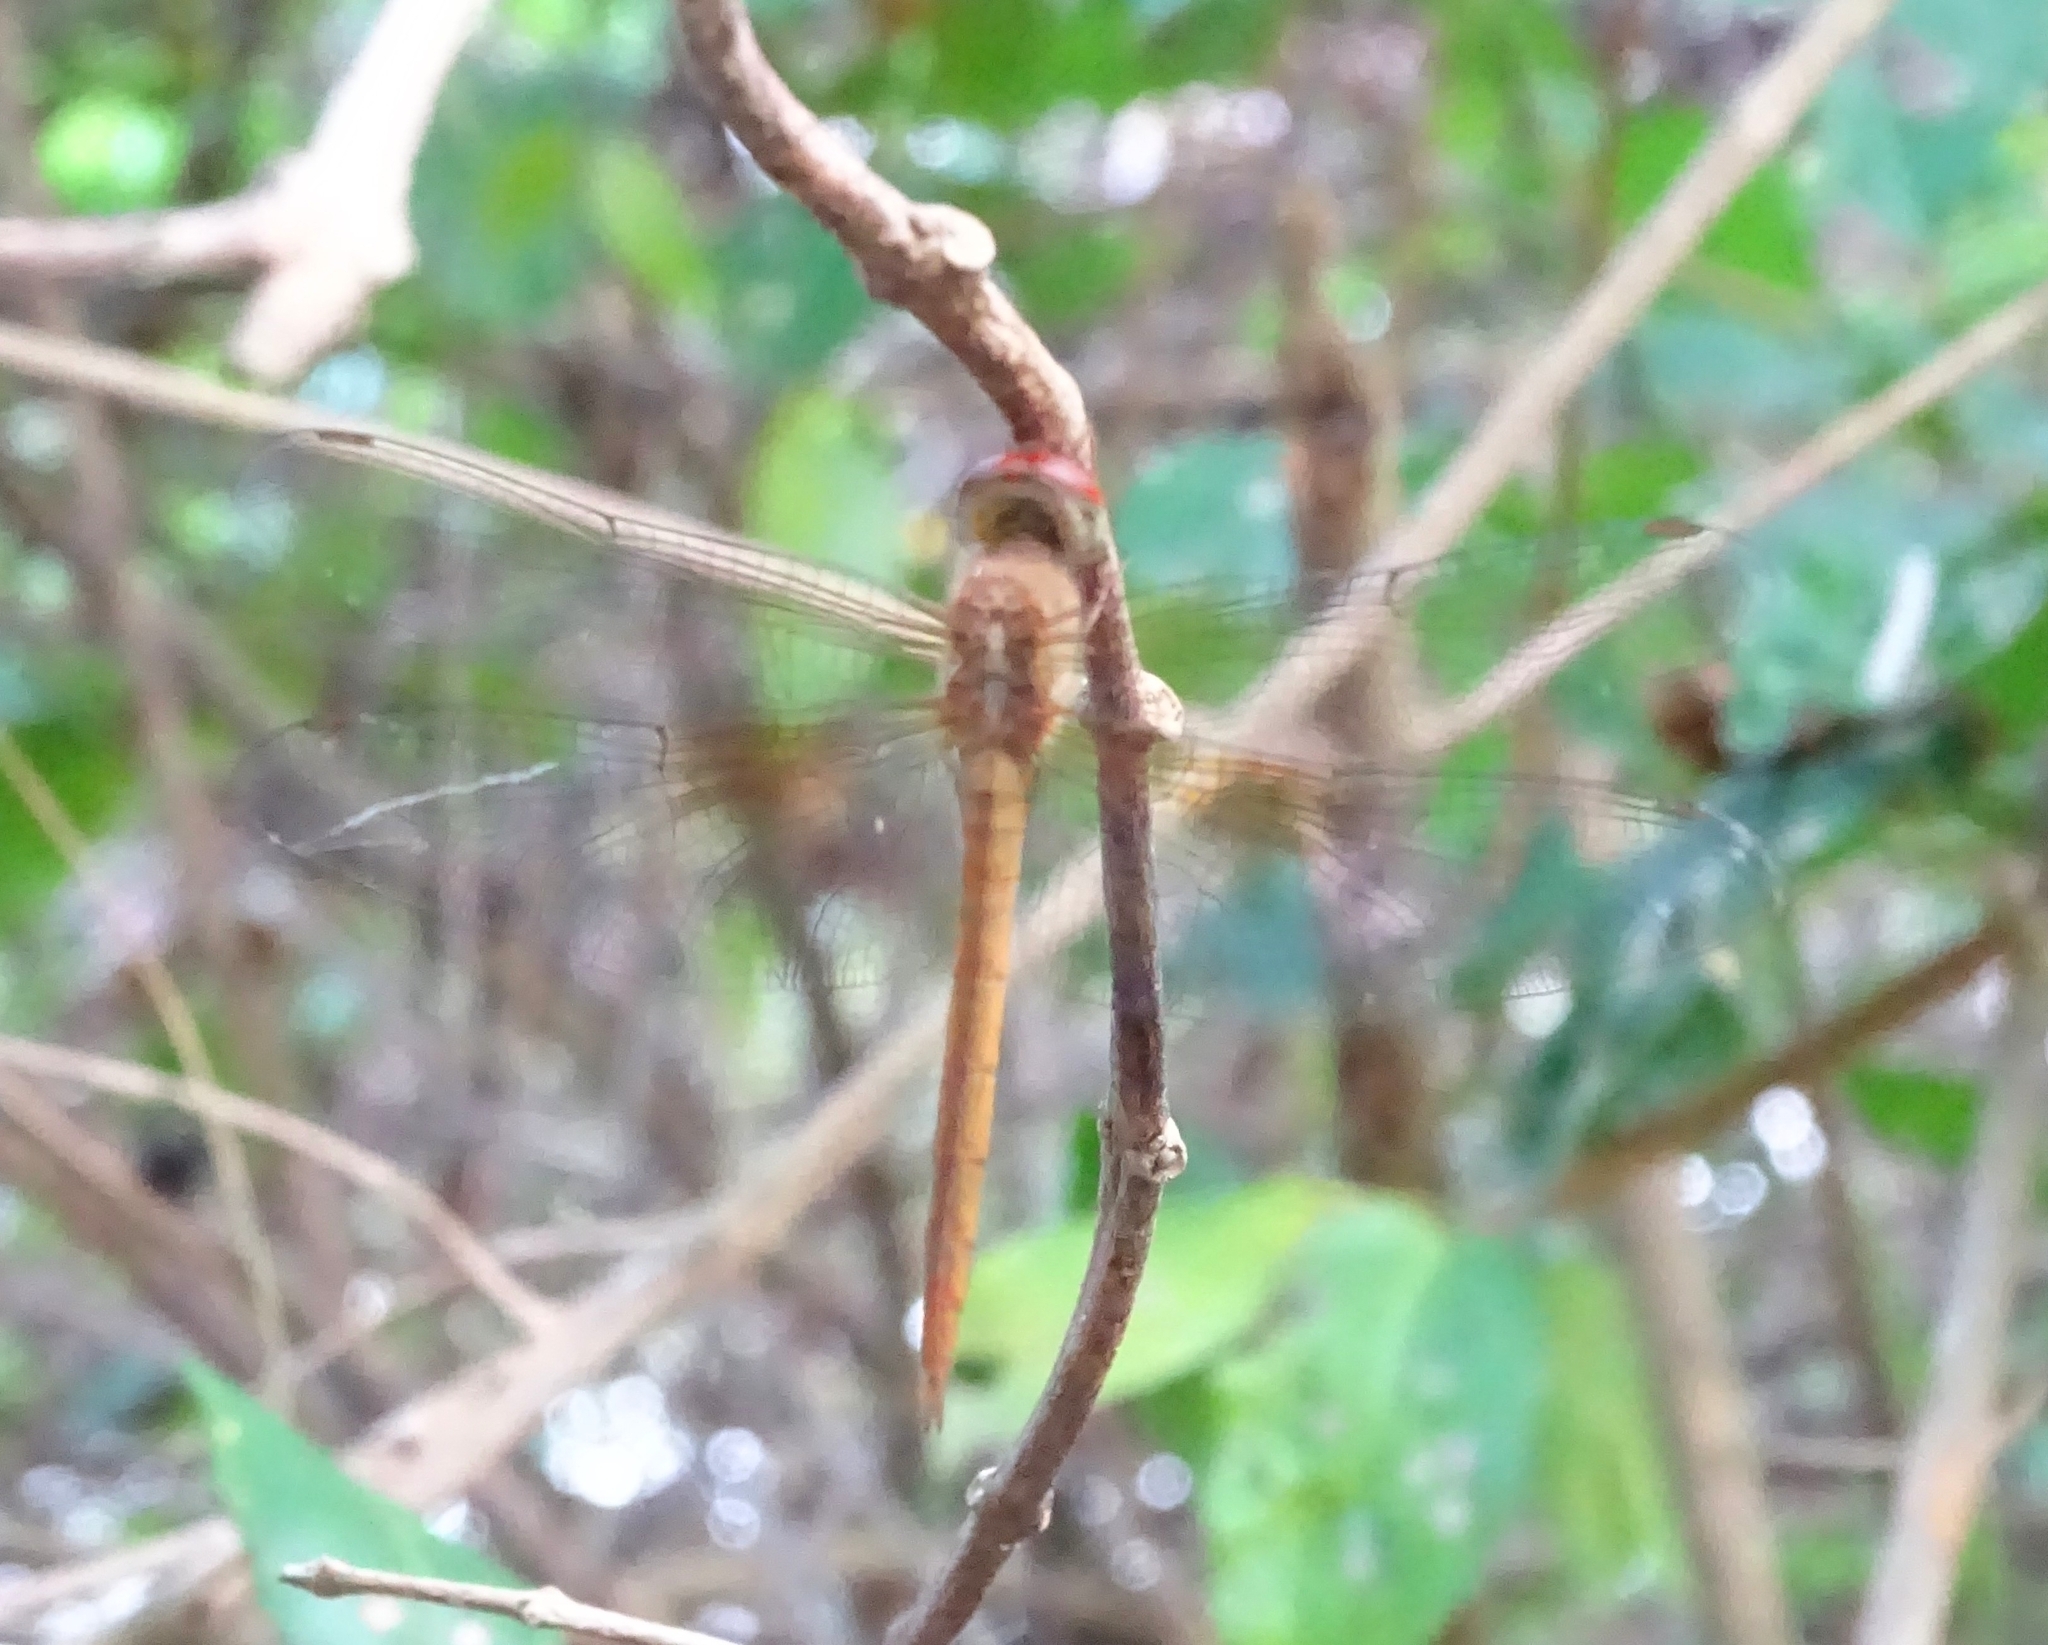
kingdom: Animalia
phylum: Arthropoda
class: Insecta
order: Odonata
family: Libellulidae
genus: Tholymis
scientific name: Tholymis tillarga
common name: Coral-tailed cloud wing
